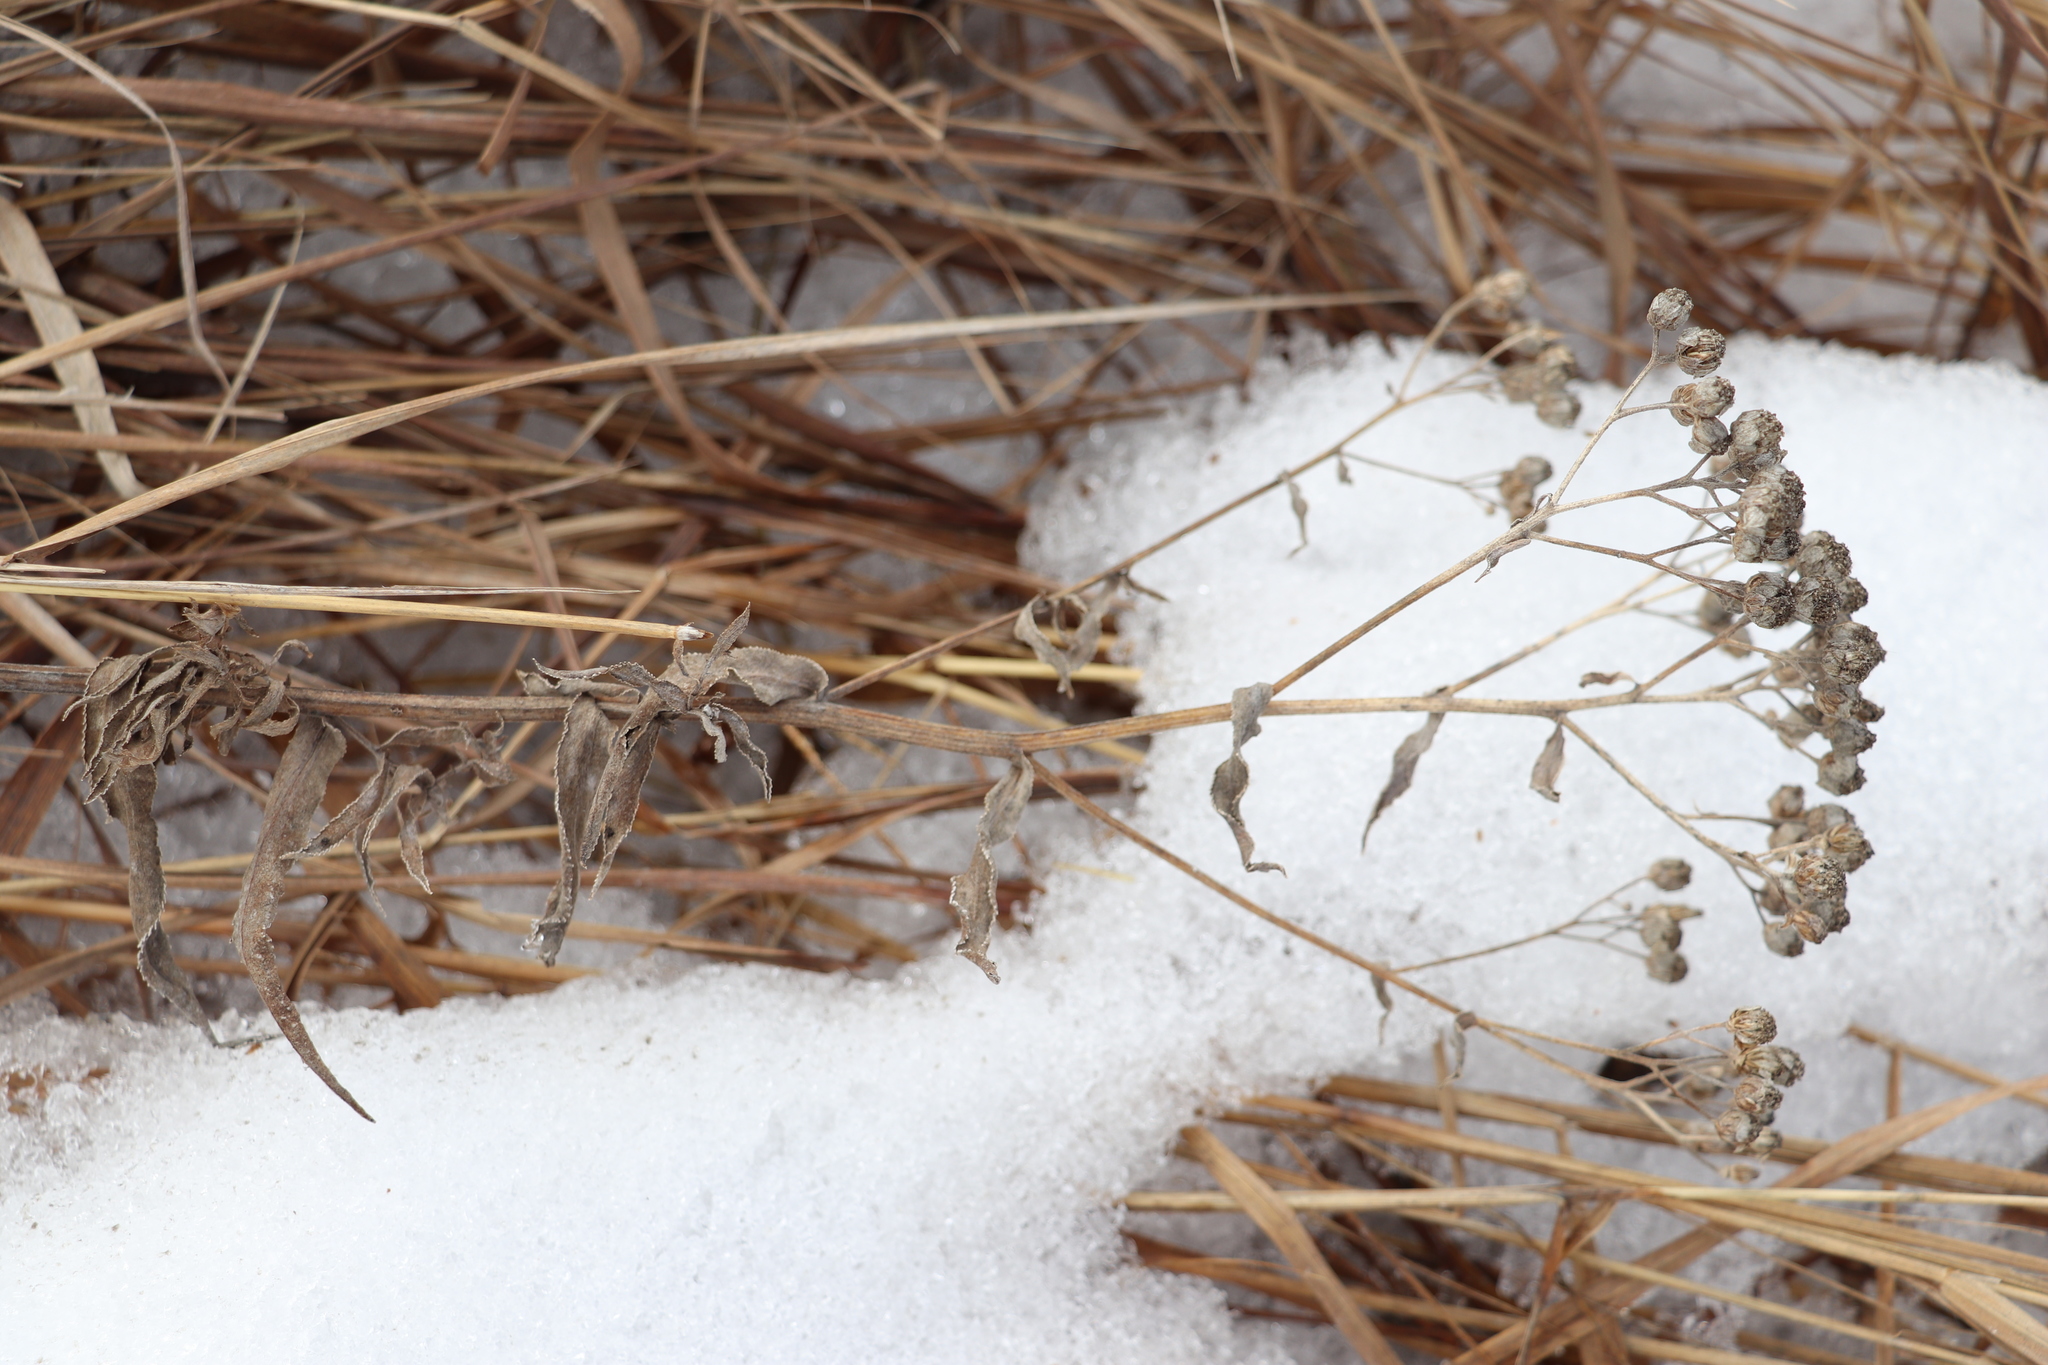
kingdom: Plantae
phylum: Tracheophyta
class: Magnoliopsida
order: Asterales
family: Asteraceae
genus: Achillea
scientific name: Achillea salicifolia
